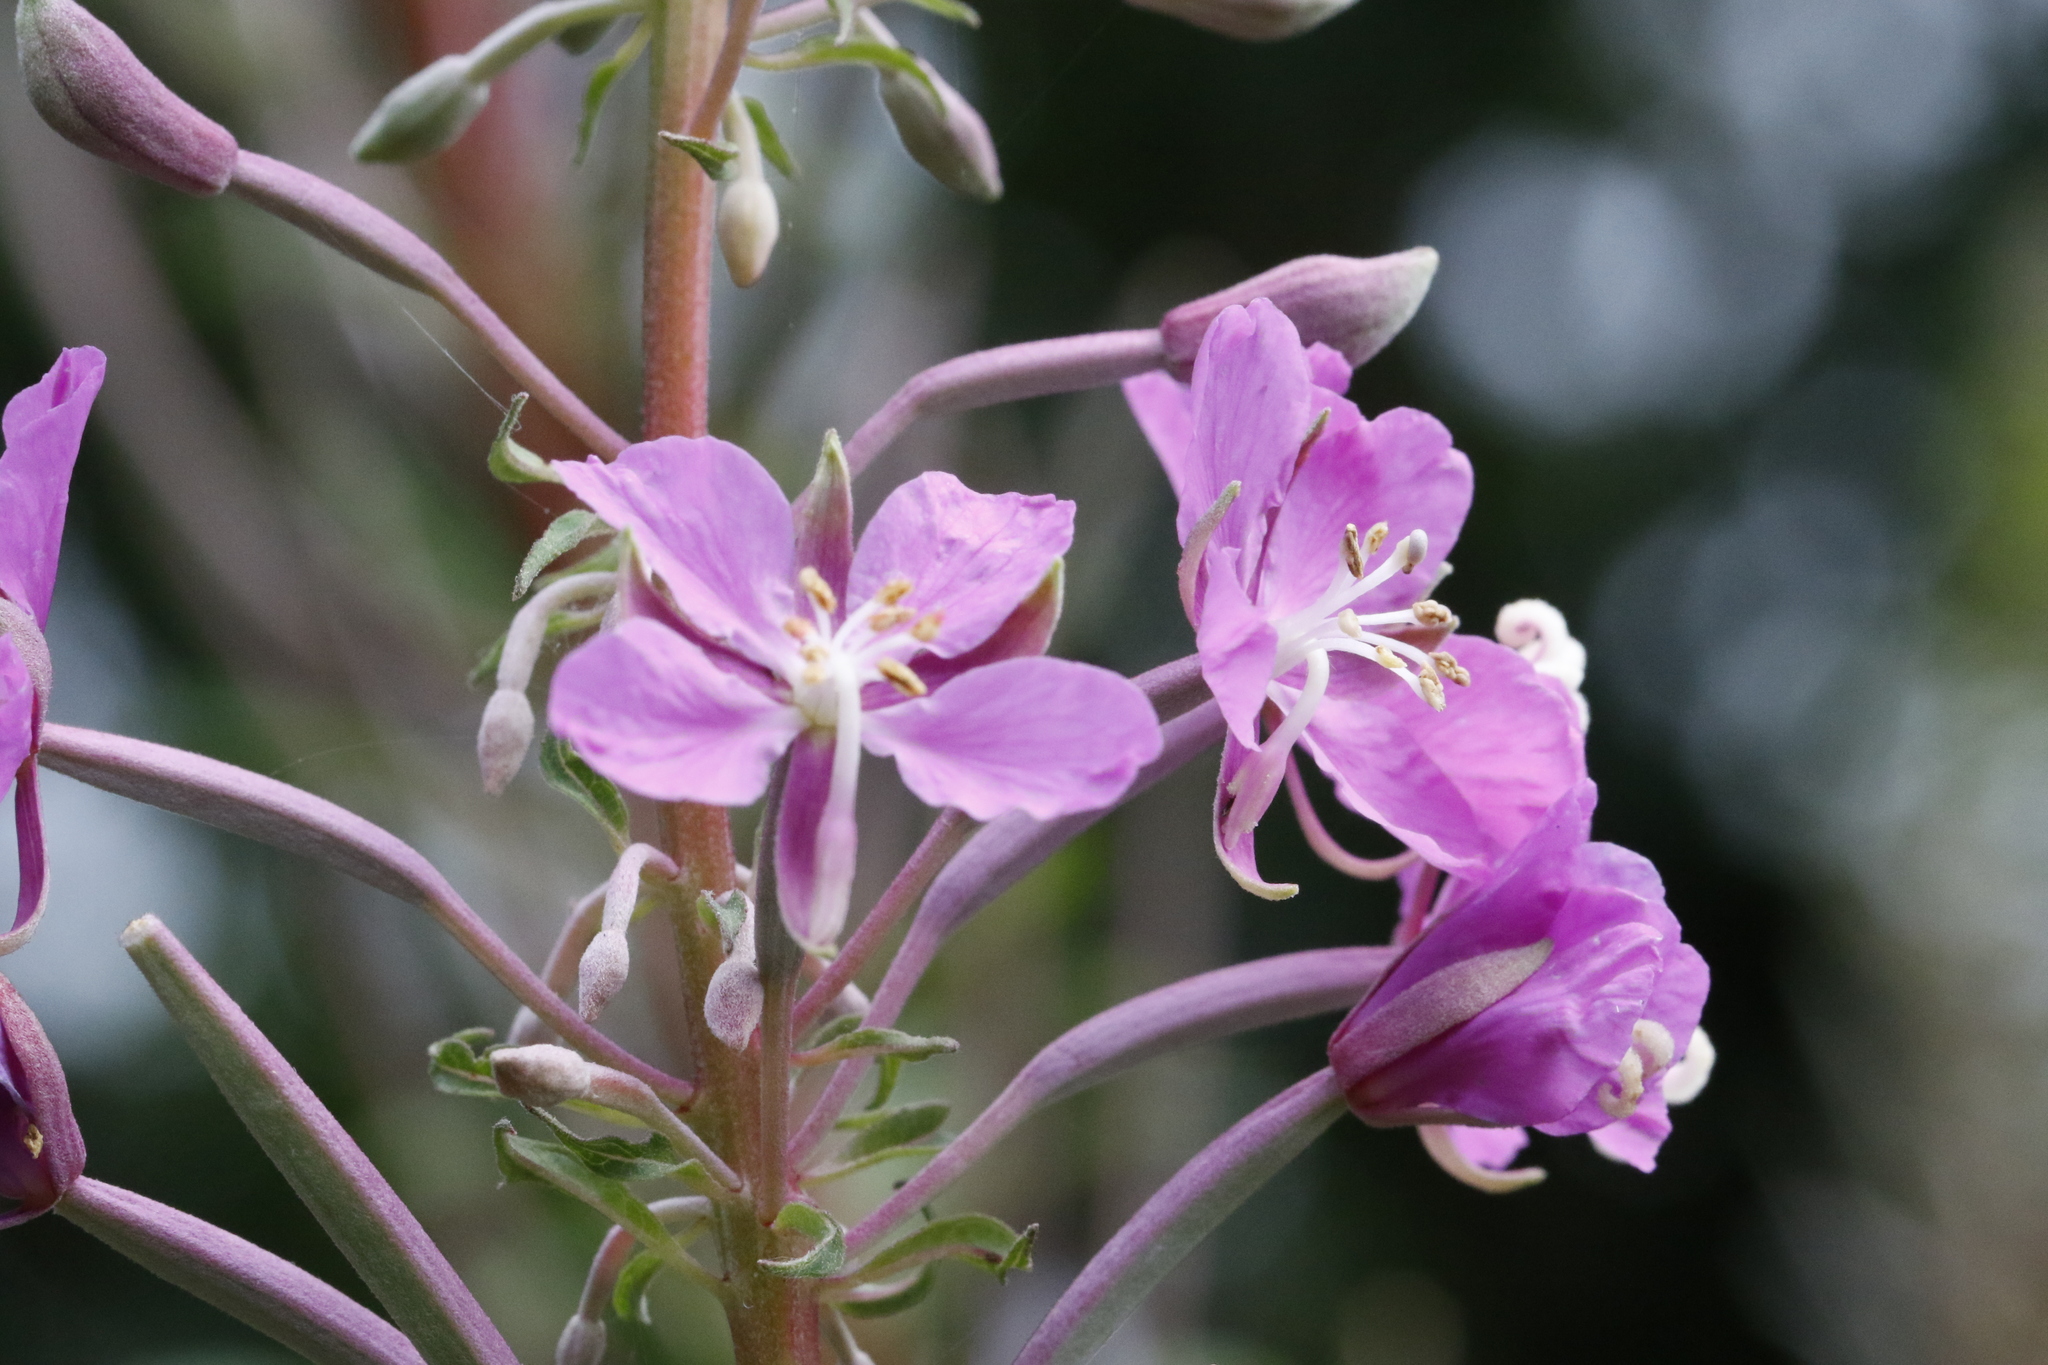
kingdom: Plantae
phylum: Tracheophyta
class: Magnoliopsida
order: Myrtales
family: Onagraceae
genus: Chamaenerion
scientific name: Chamaenerion angustifolium
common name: Fireweed
